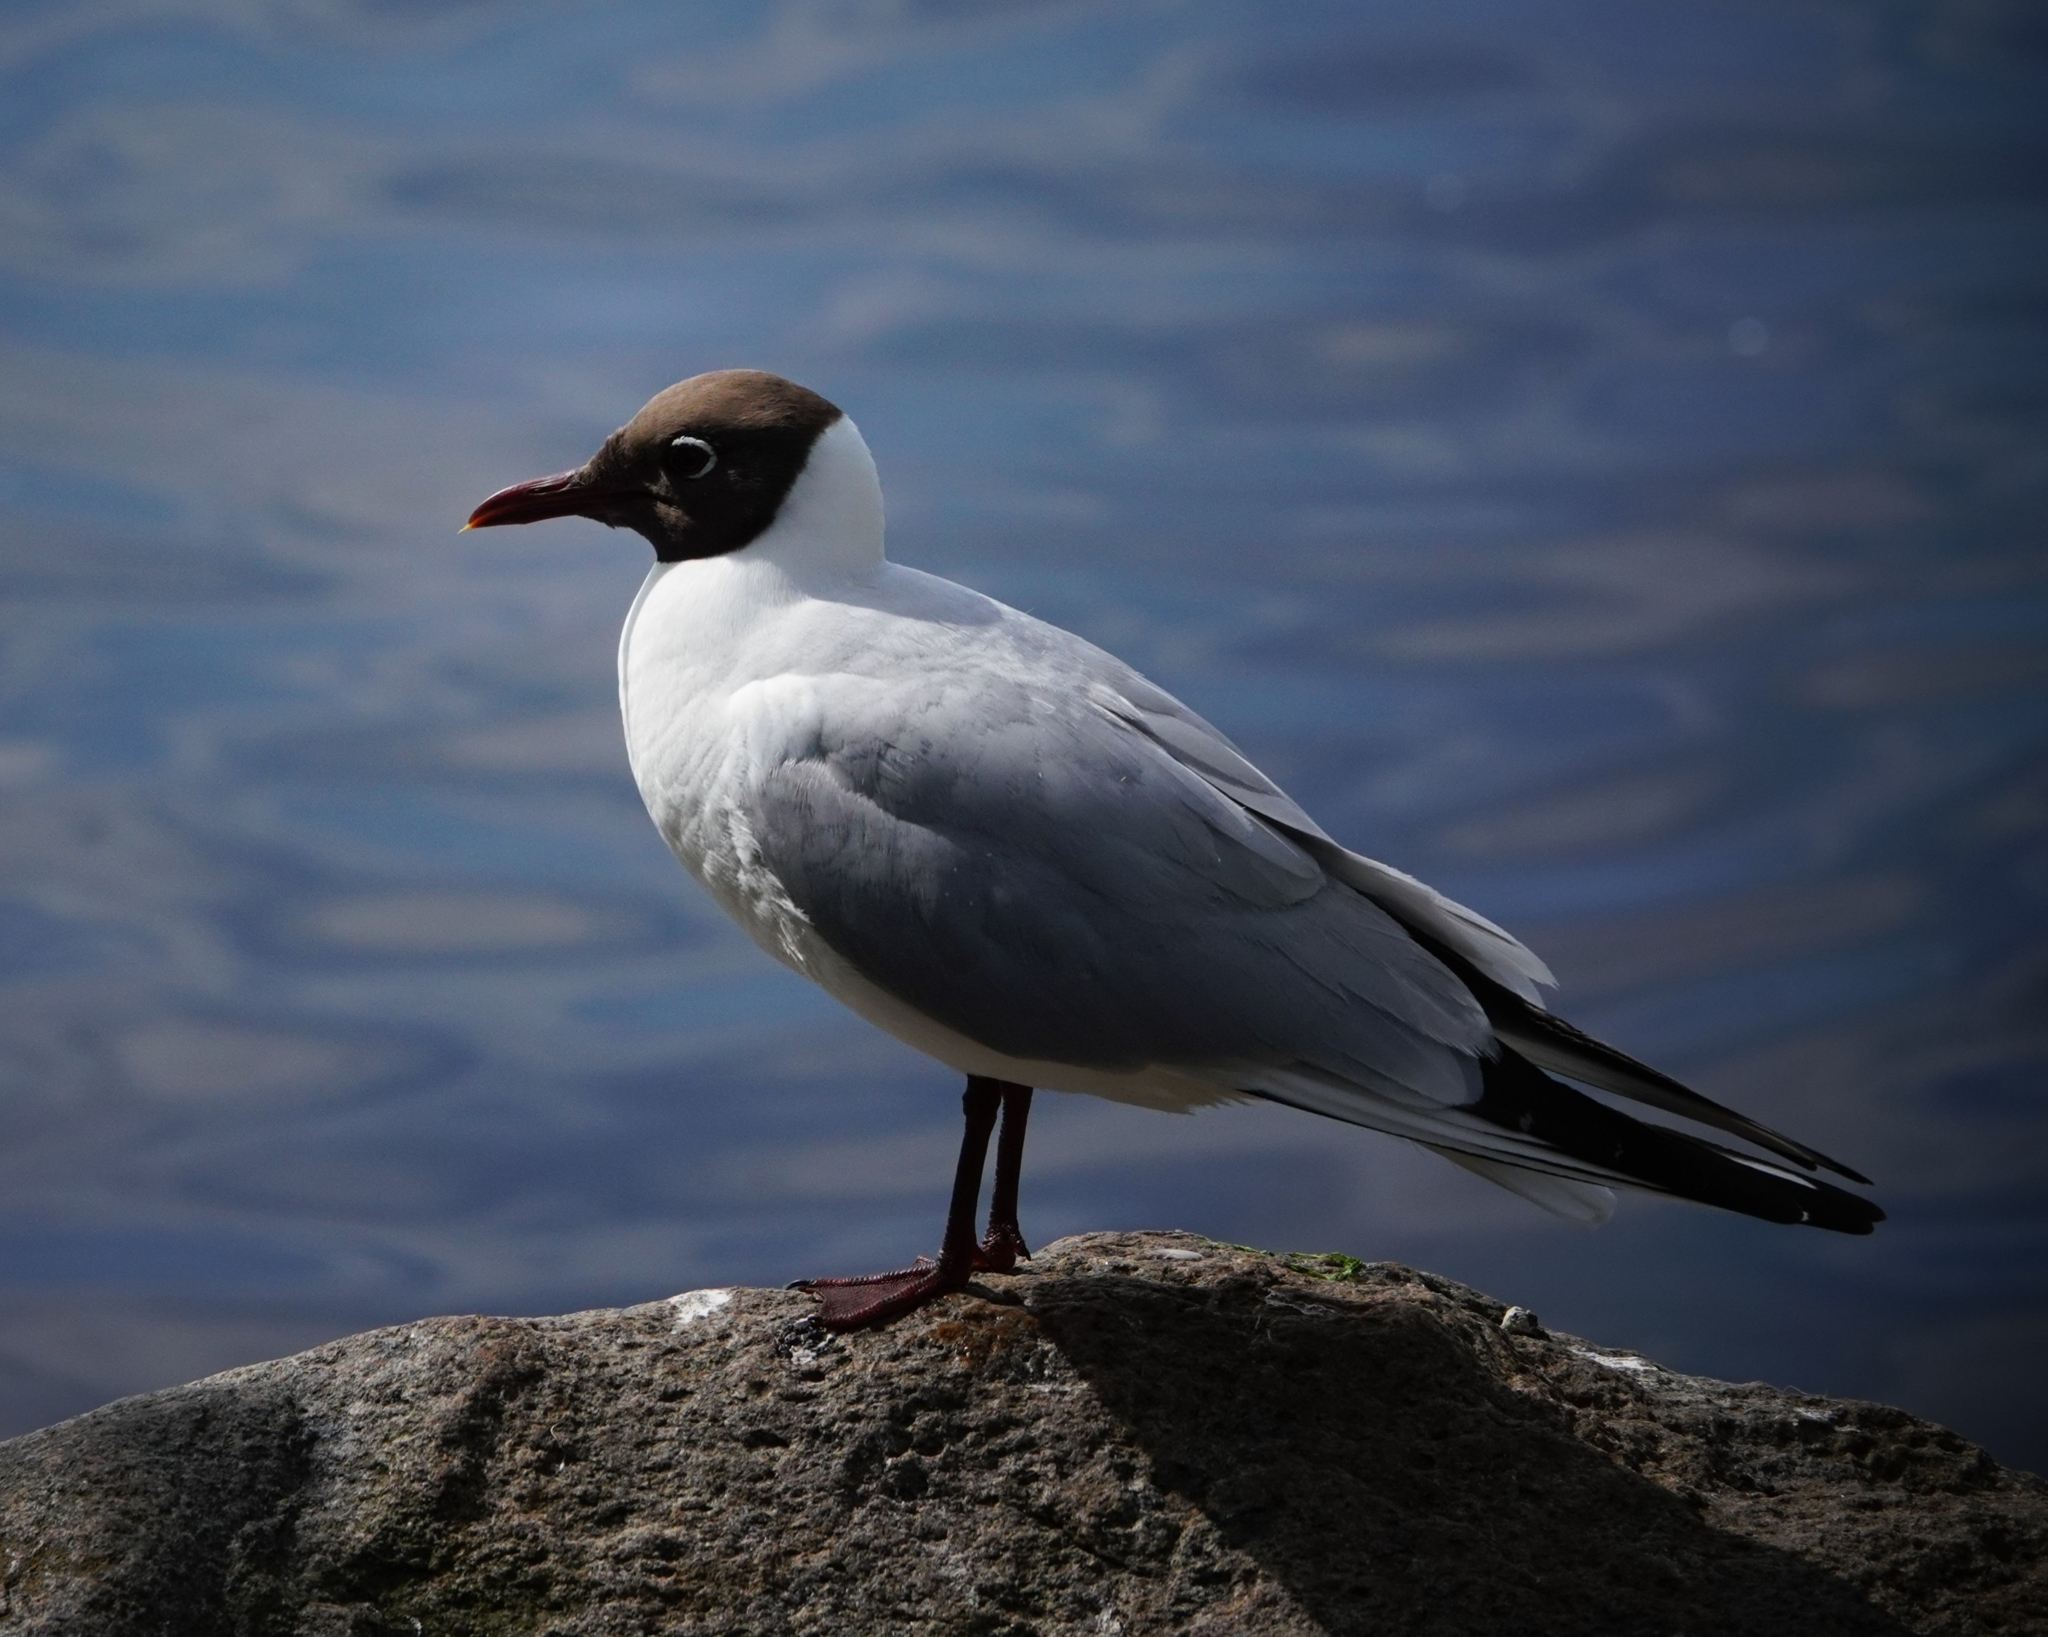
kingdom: Animalia
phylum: Chordata
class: Aves
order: Charadriiformes
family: Laridae
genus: Chroicocephalus
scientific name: Chroicocephalus ridibundus
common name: Black-headed gull
